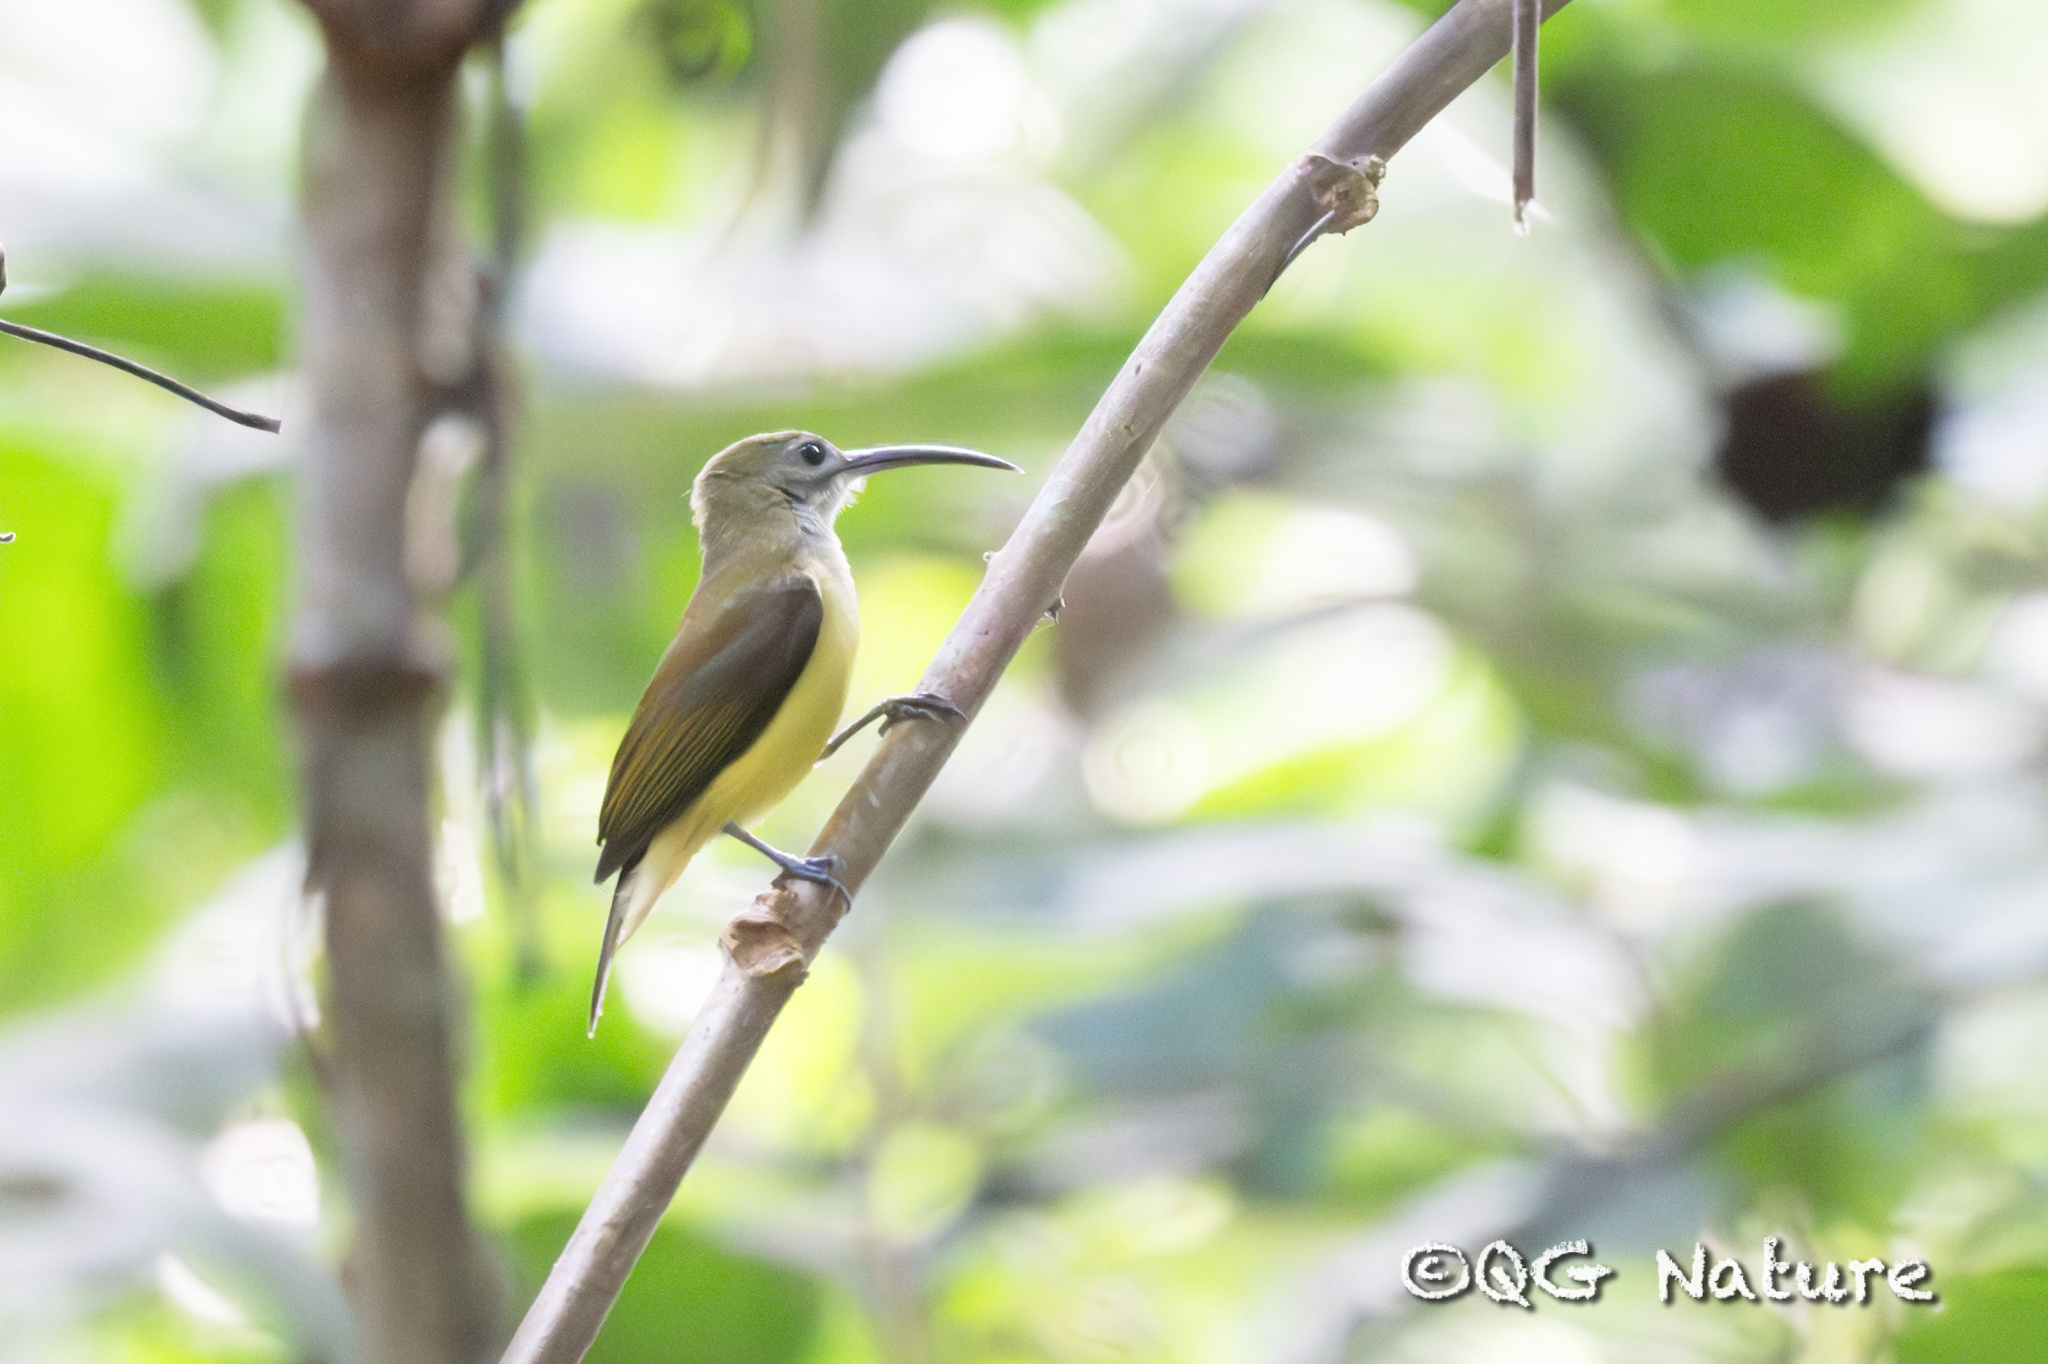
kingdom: Animalia
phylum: Chordata
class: Aves
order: Passeriformes
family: Nectariniidae
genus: Arachnothera
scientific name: Arachnothera longirostra
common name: Little spiderhunter
